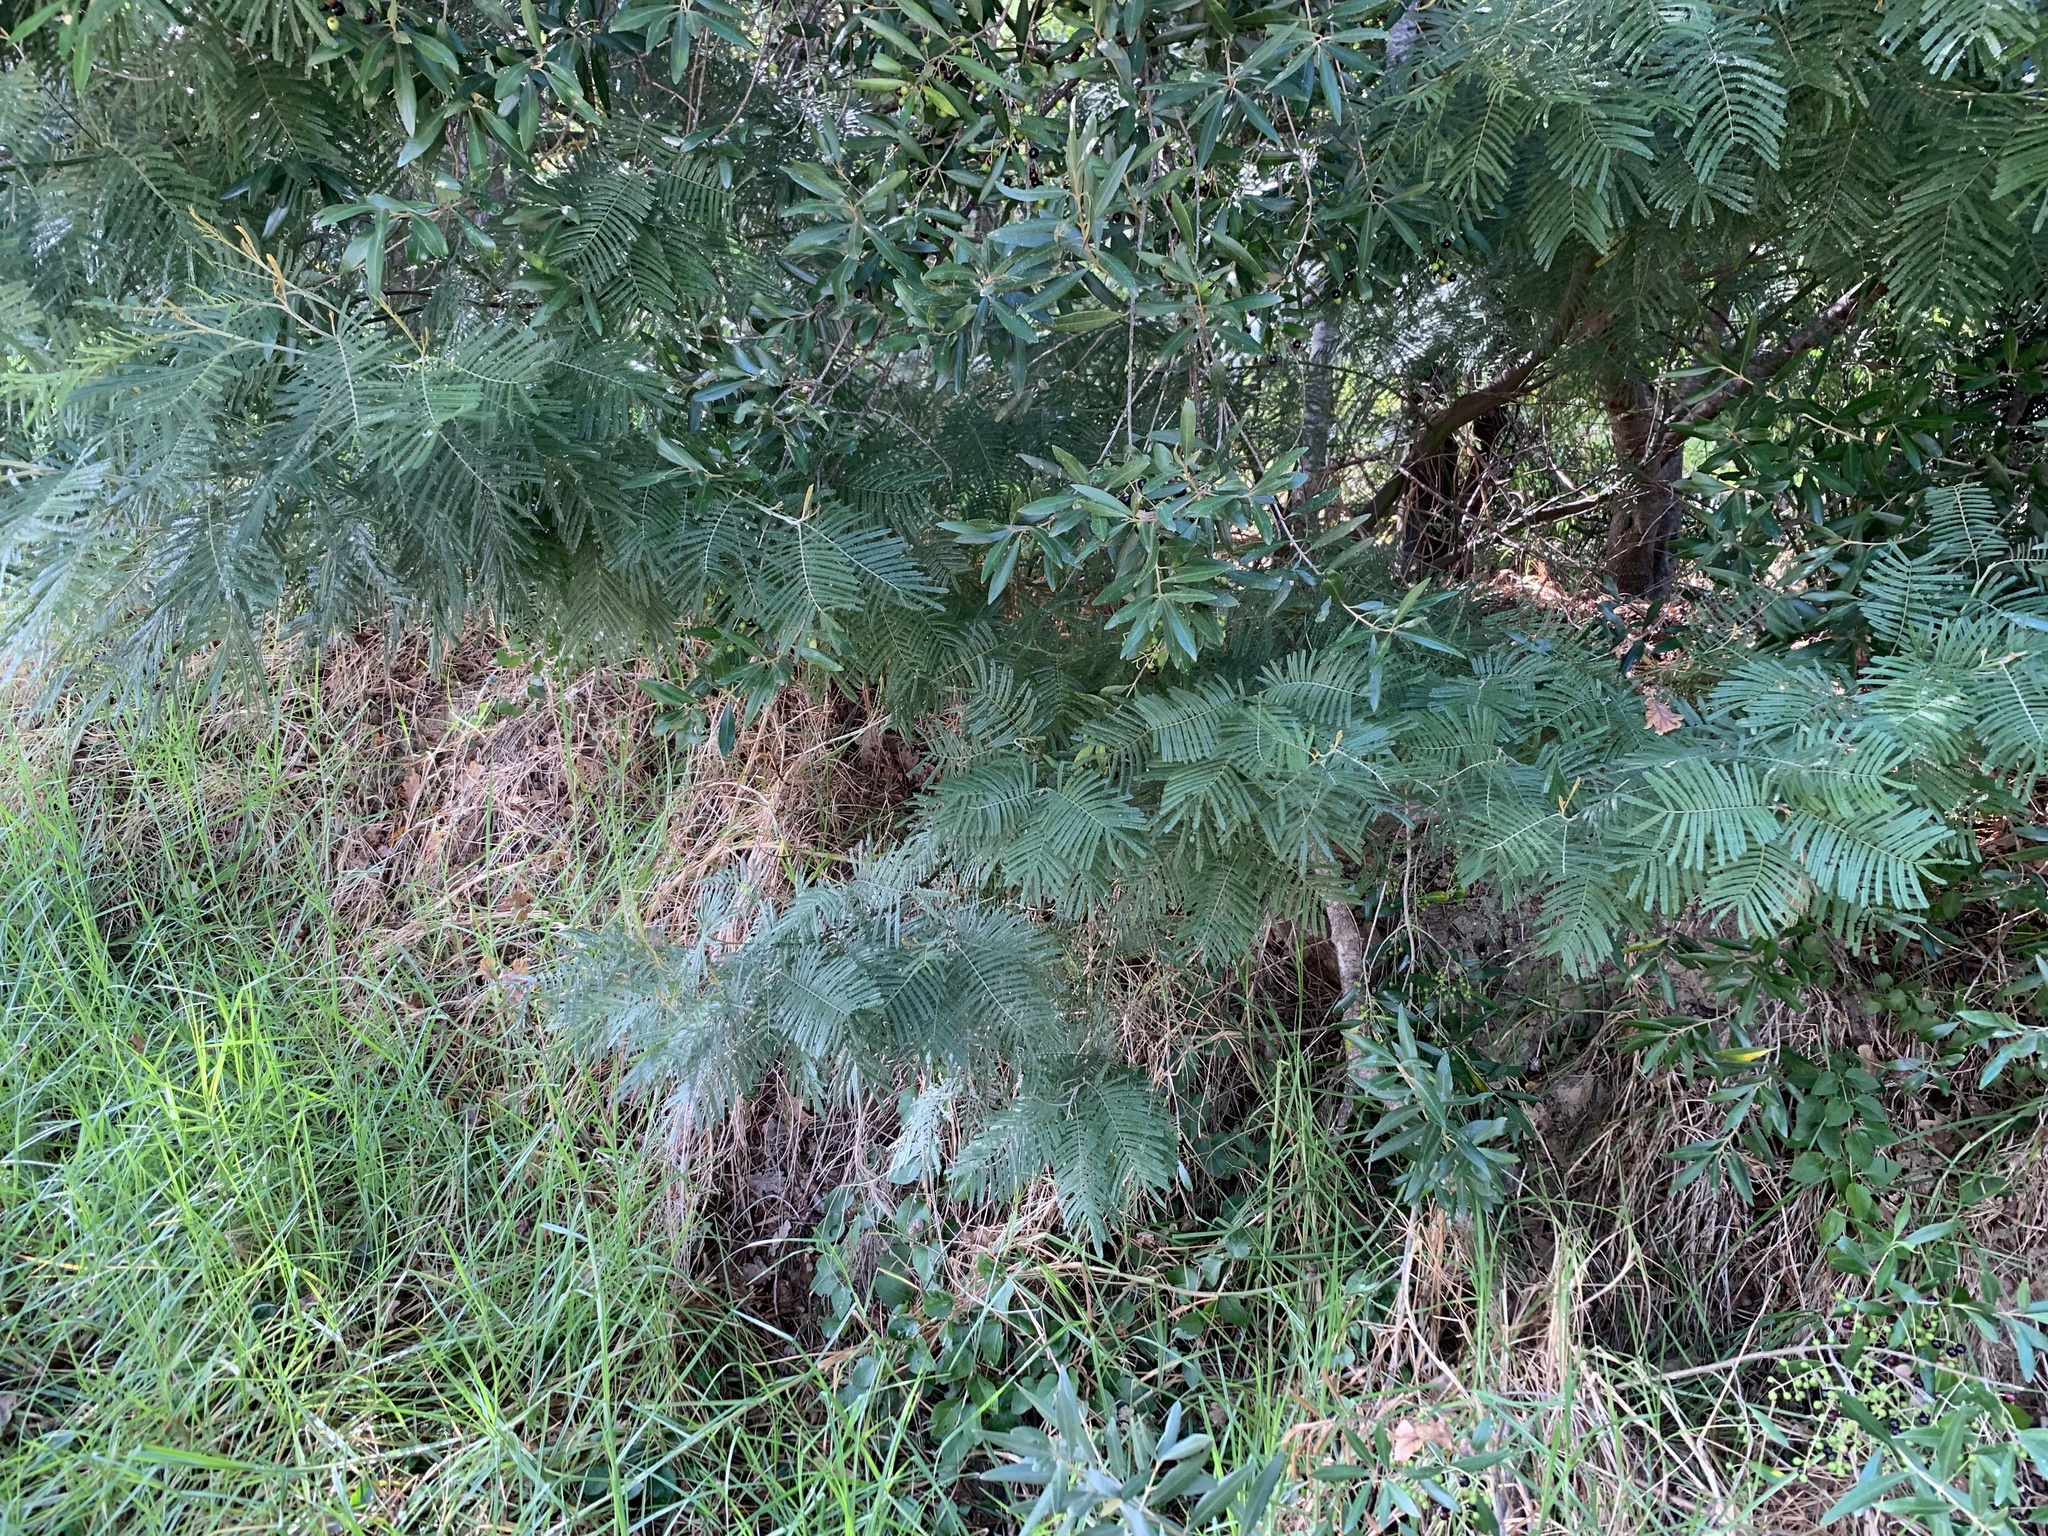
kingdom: Plantae
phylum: Tracheophyta
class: Magnoliopsida
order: Fabales
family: Fabaceae
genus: Acacia
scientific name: Acacia mearnsii
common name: Black wattle
